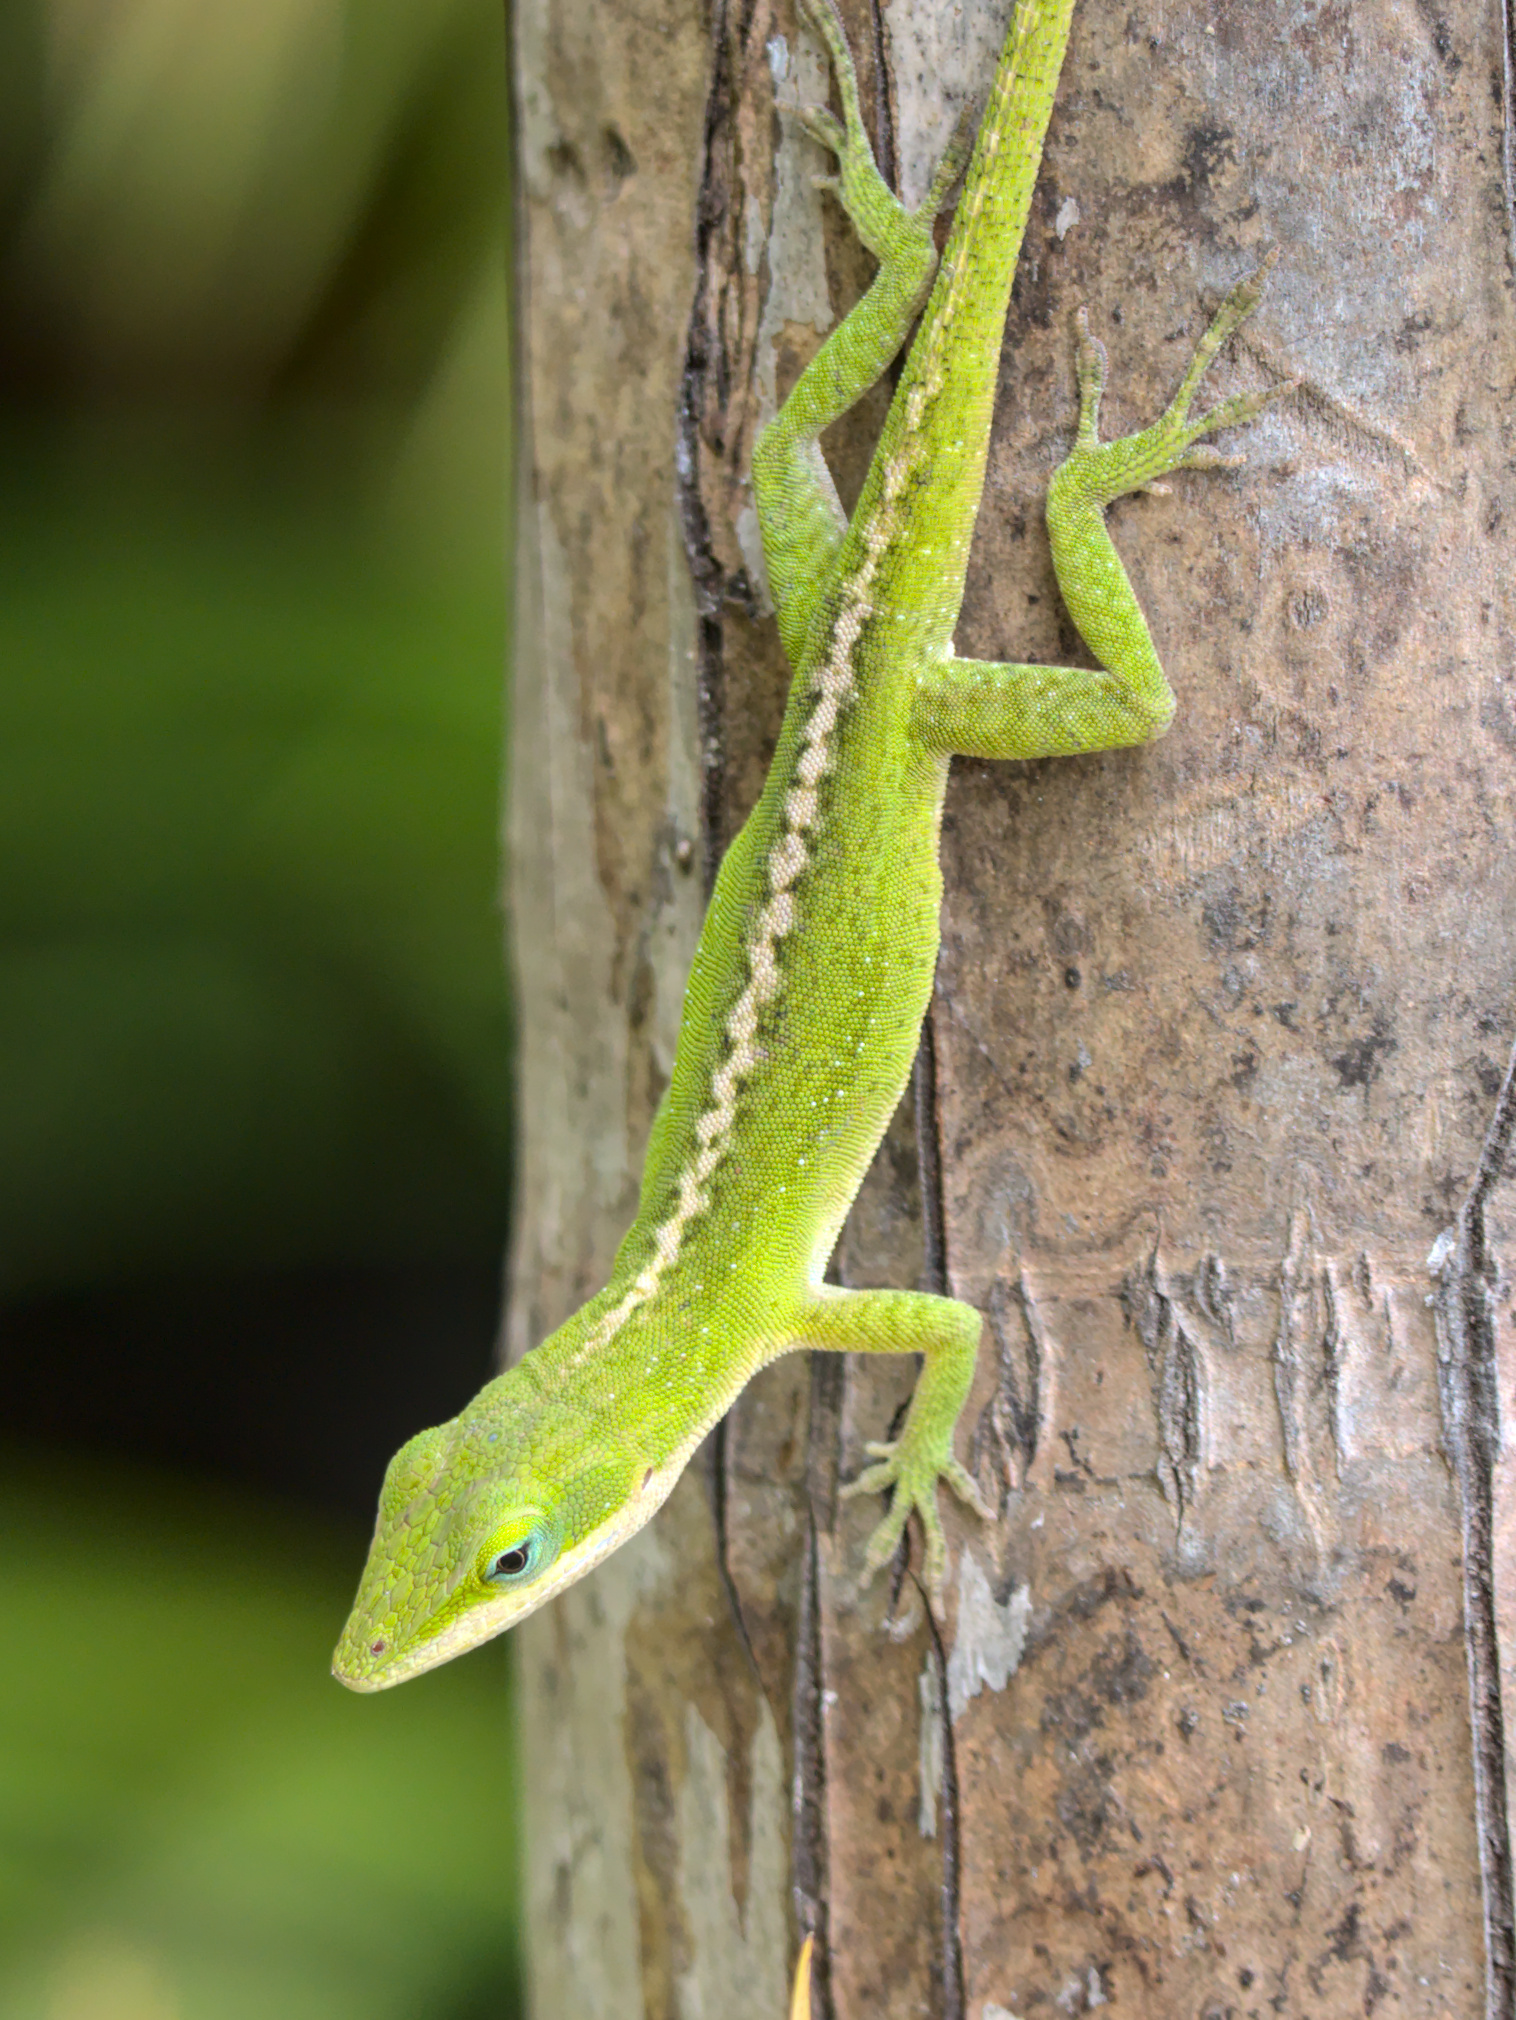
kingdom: Animalia
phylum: Chordata
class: Squamata
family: Dactyloidae
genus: Anolis
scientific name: Anolis carolinensis
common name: Green anole
